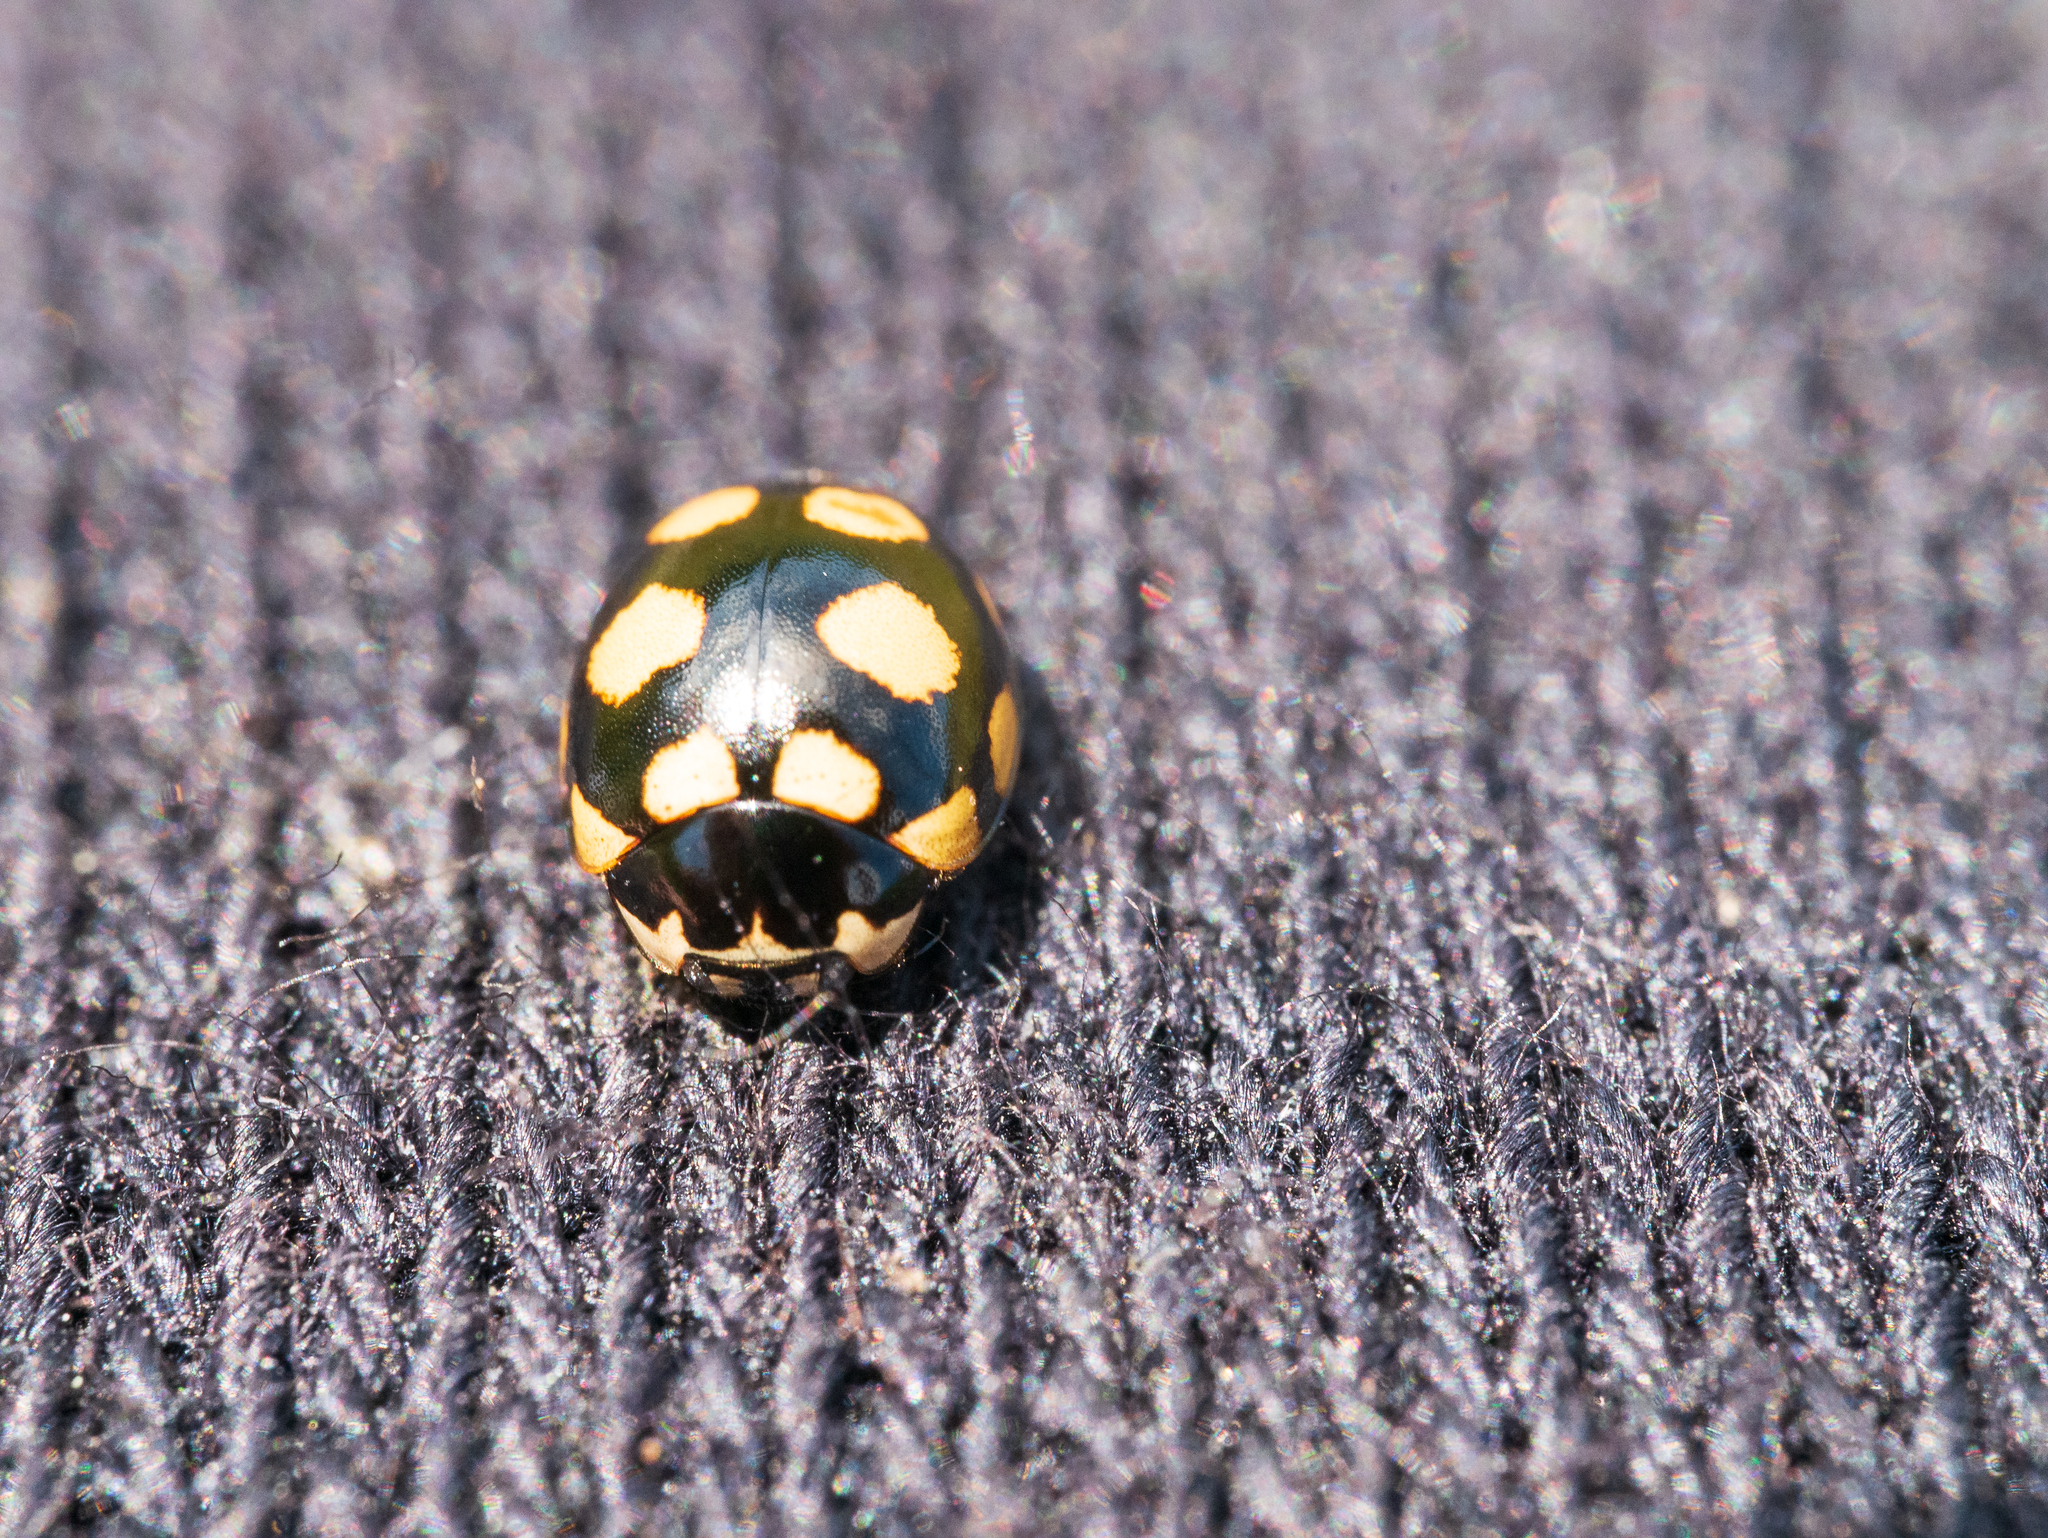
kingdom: Animalia
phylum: Arthropoda
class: Insecta
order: Coleoptera
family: Coccinellidae
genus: Coccinula
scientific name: Coccinula quatuordecimpustulata
